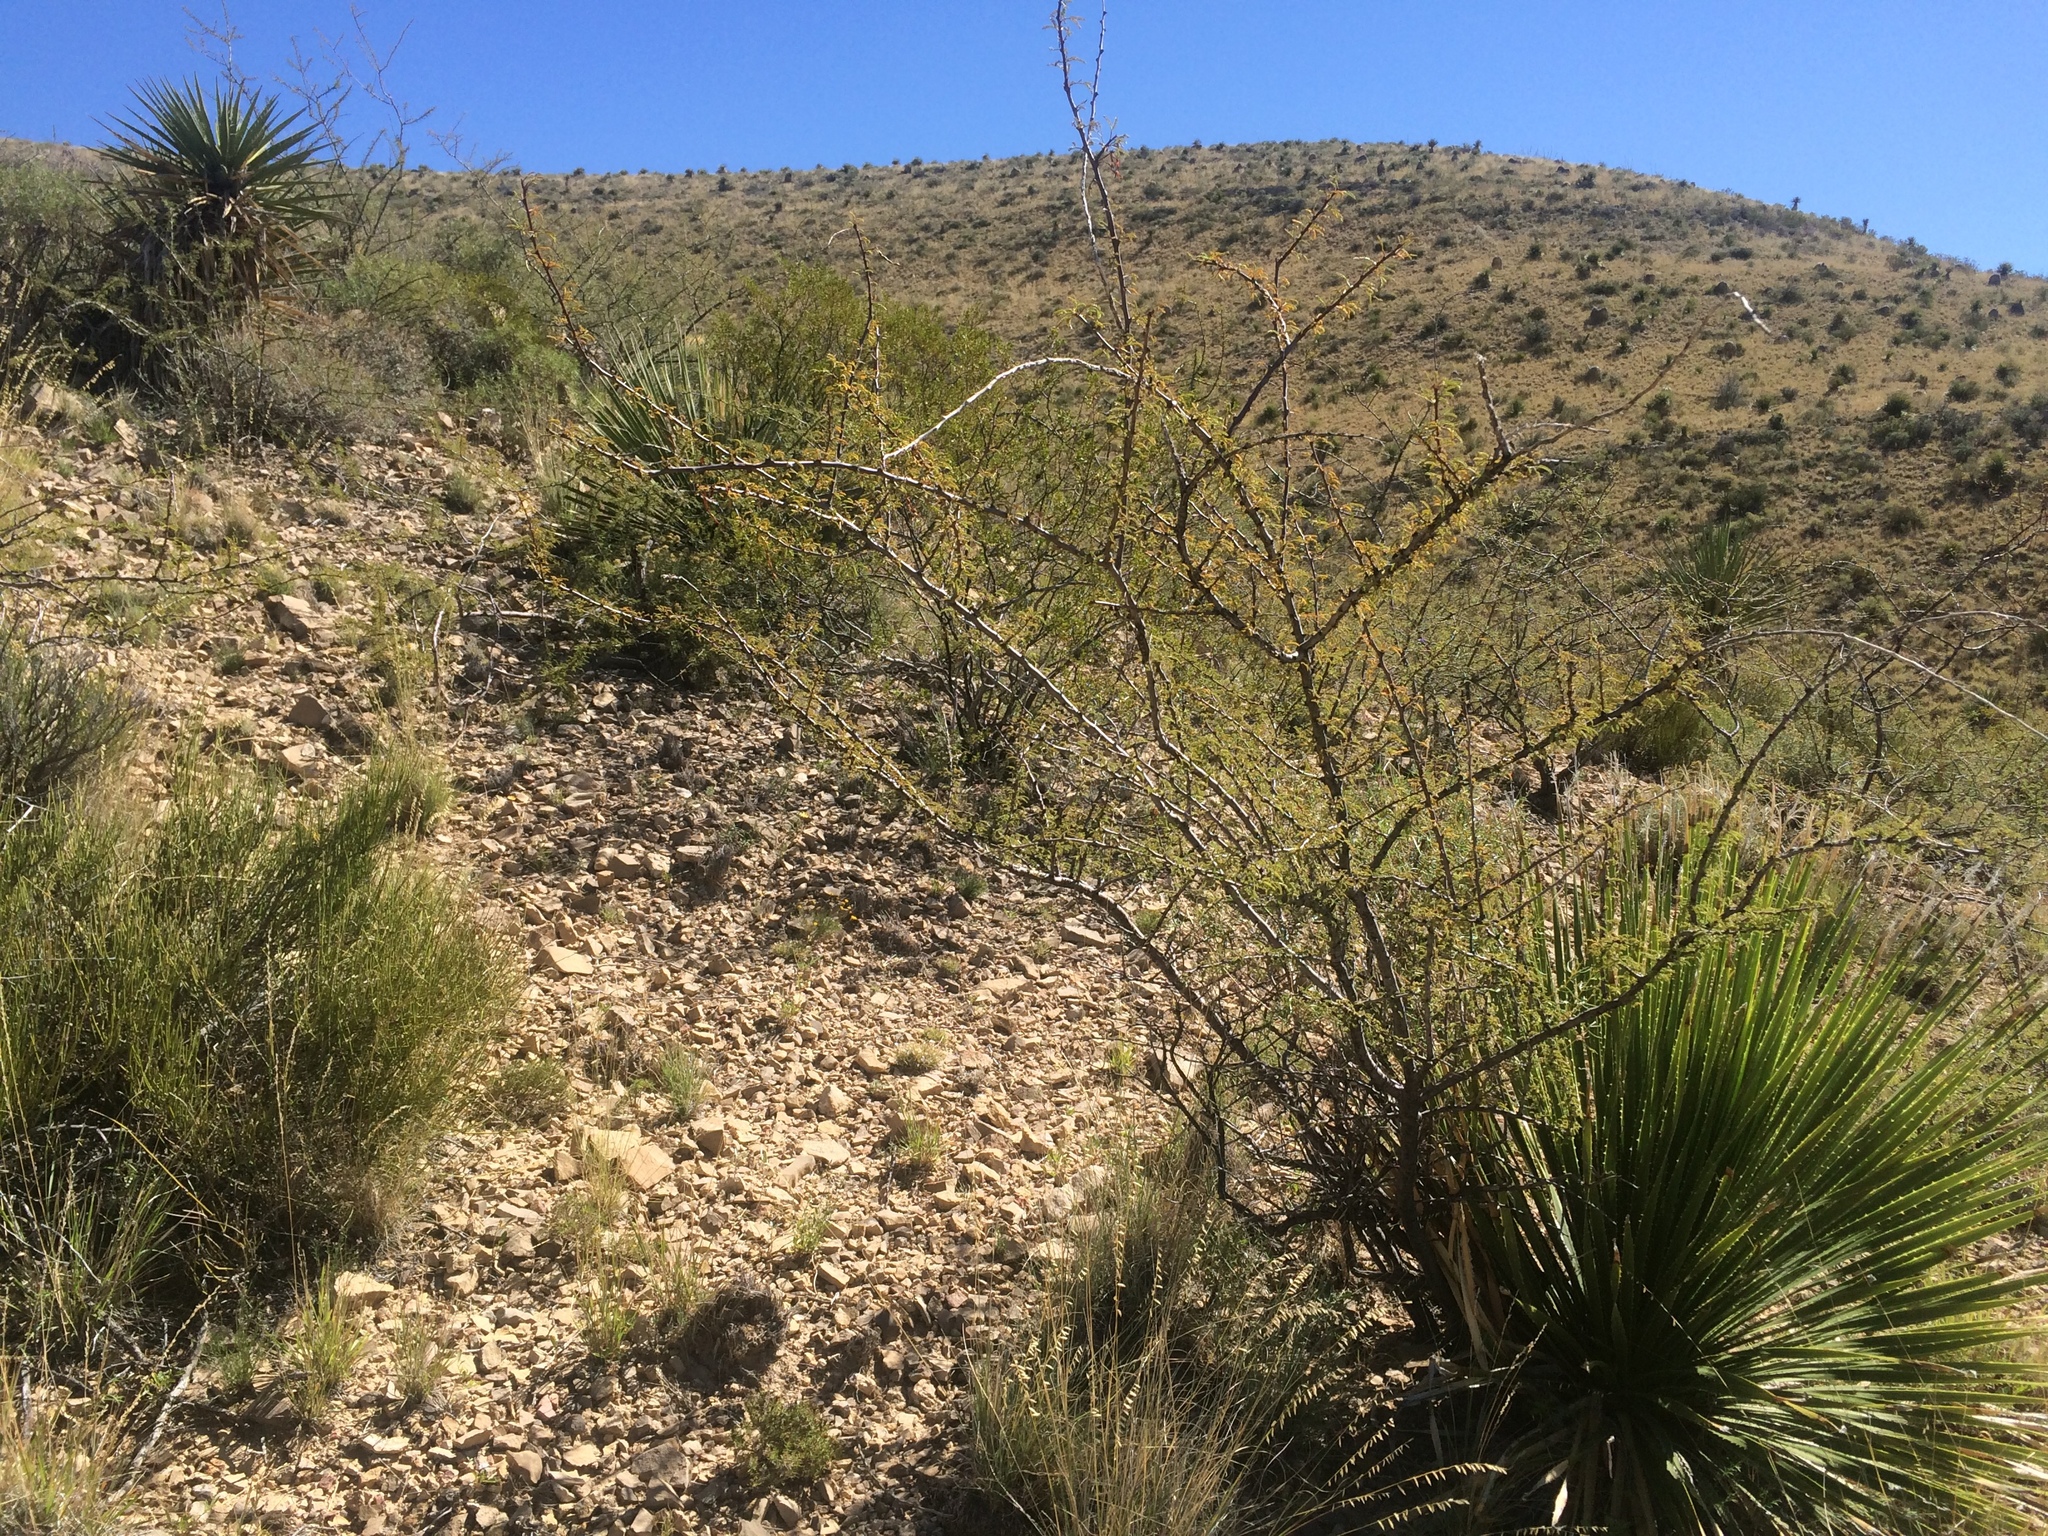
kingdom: Plantae
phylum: Tracheophyta
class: Magnoliopsida
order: Fabales
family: Fabaceae
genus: Vachellia
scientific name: Vachellia vernicosa
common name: Viscid acacia
